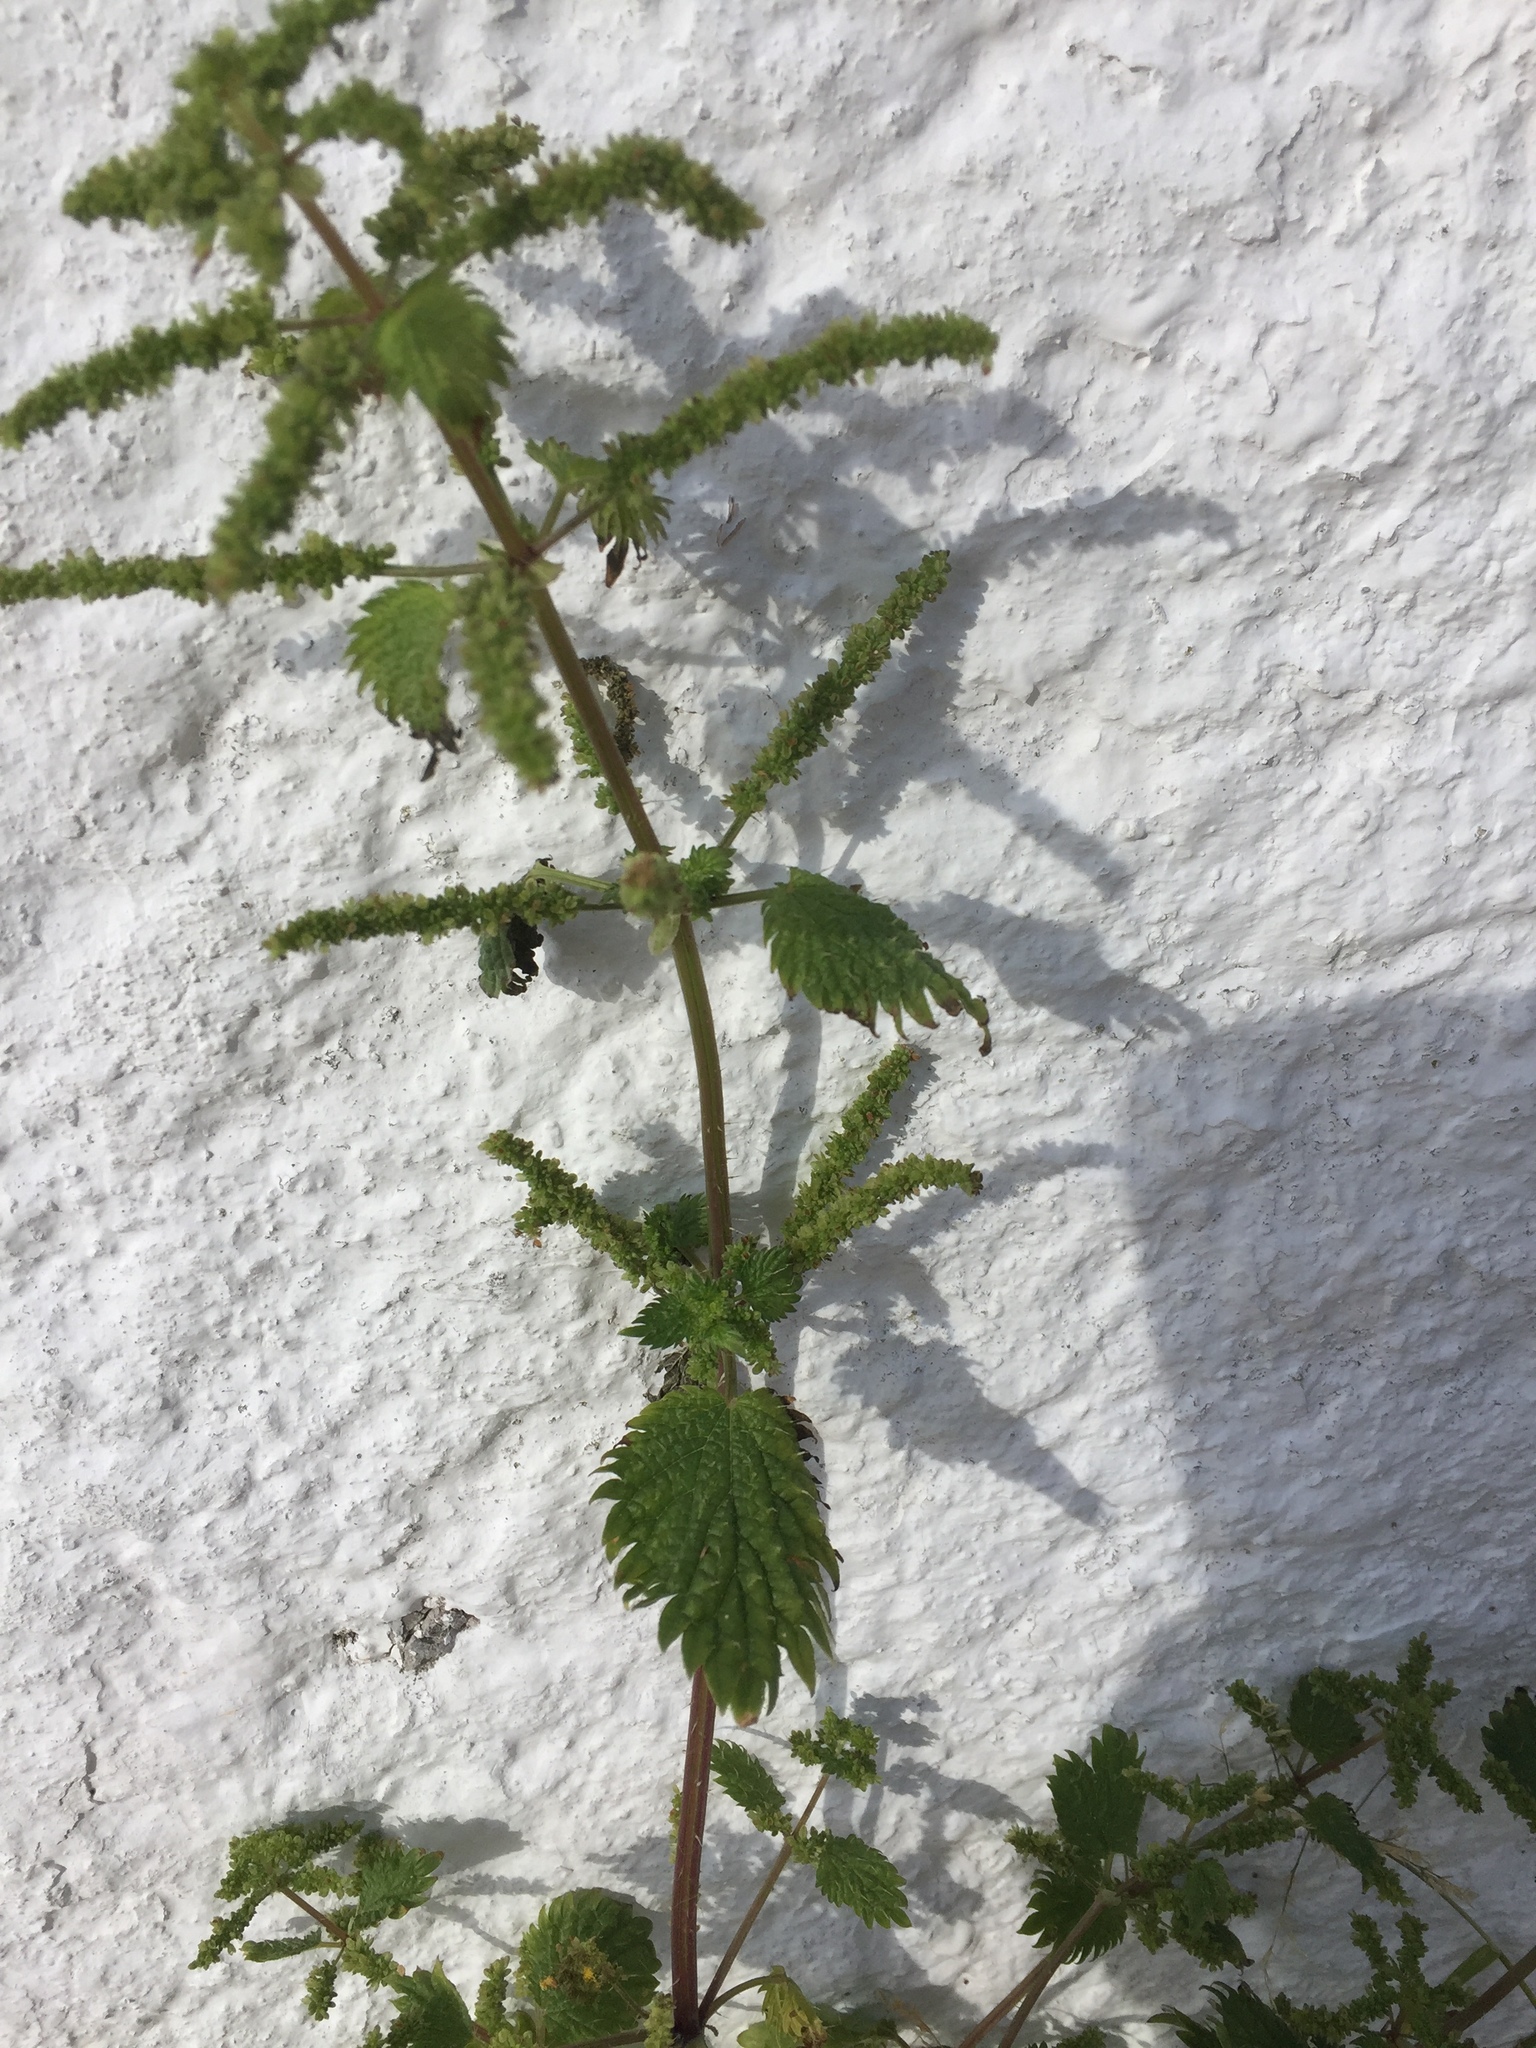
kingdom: Plantae
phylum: Tracheophyta
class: Magnoliopsida
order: Rosales
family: Urticaceae
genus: Urtica
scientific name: Urtica membranacea
